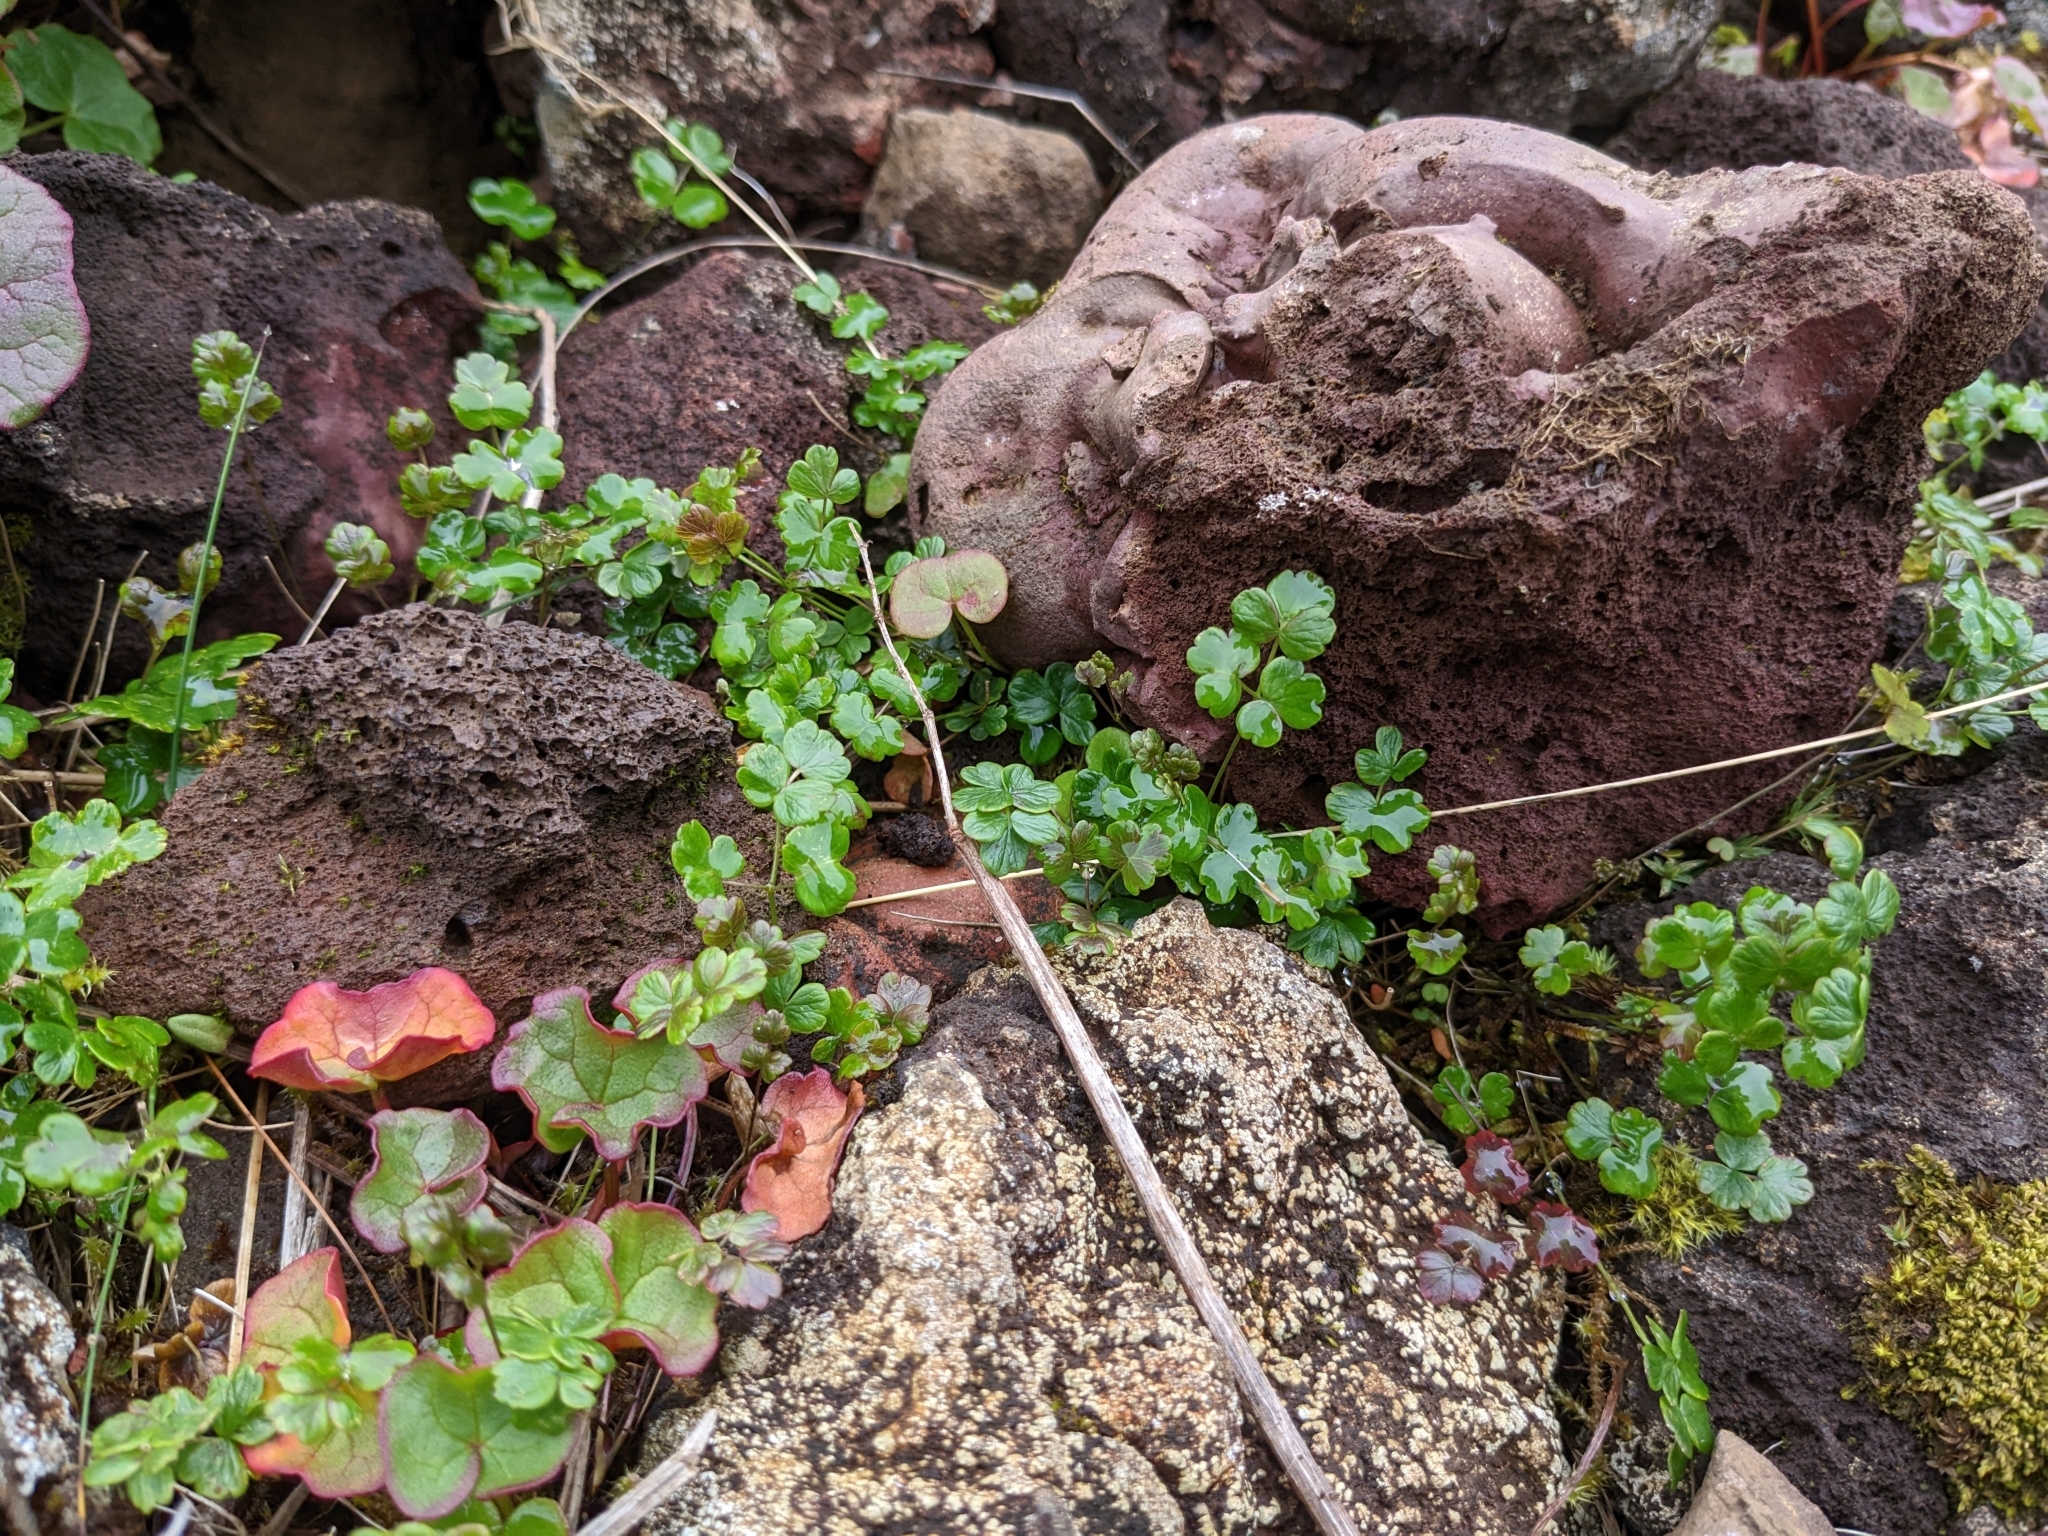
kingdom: Plantae
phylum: Tracheophyta
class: Magnoliopsida
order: Ranunculales
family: Ranunculaceae
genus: Thalictrum
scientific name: Thalictrum alpinum
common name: Alpine meadow-rue
